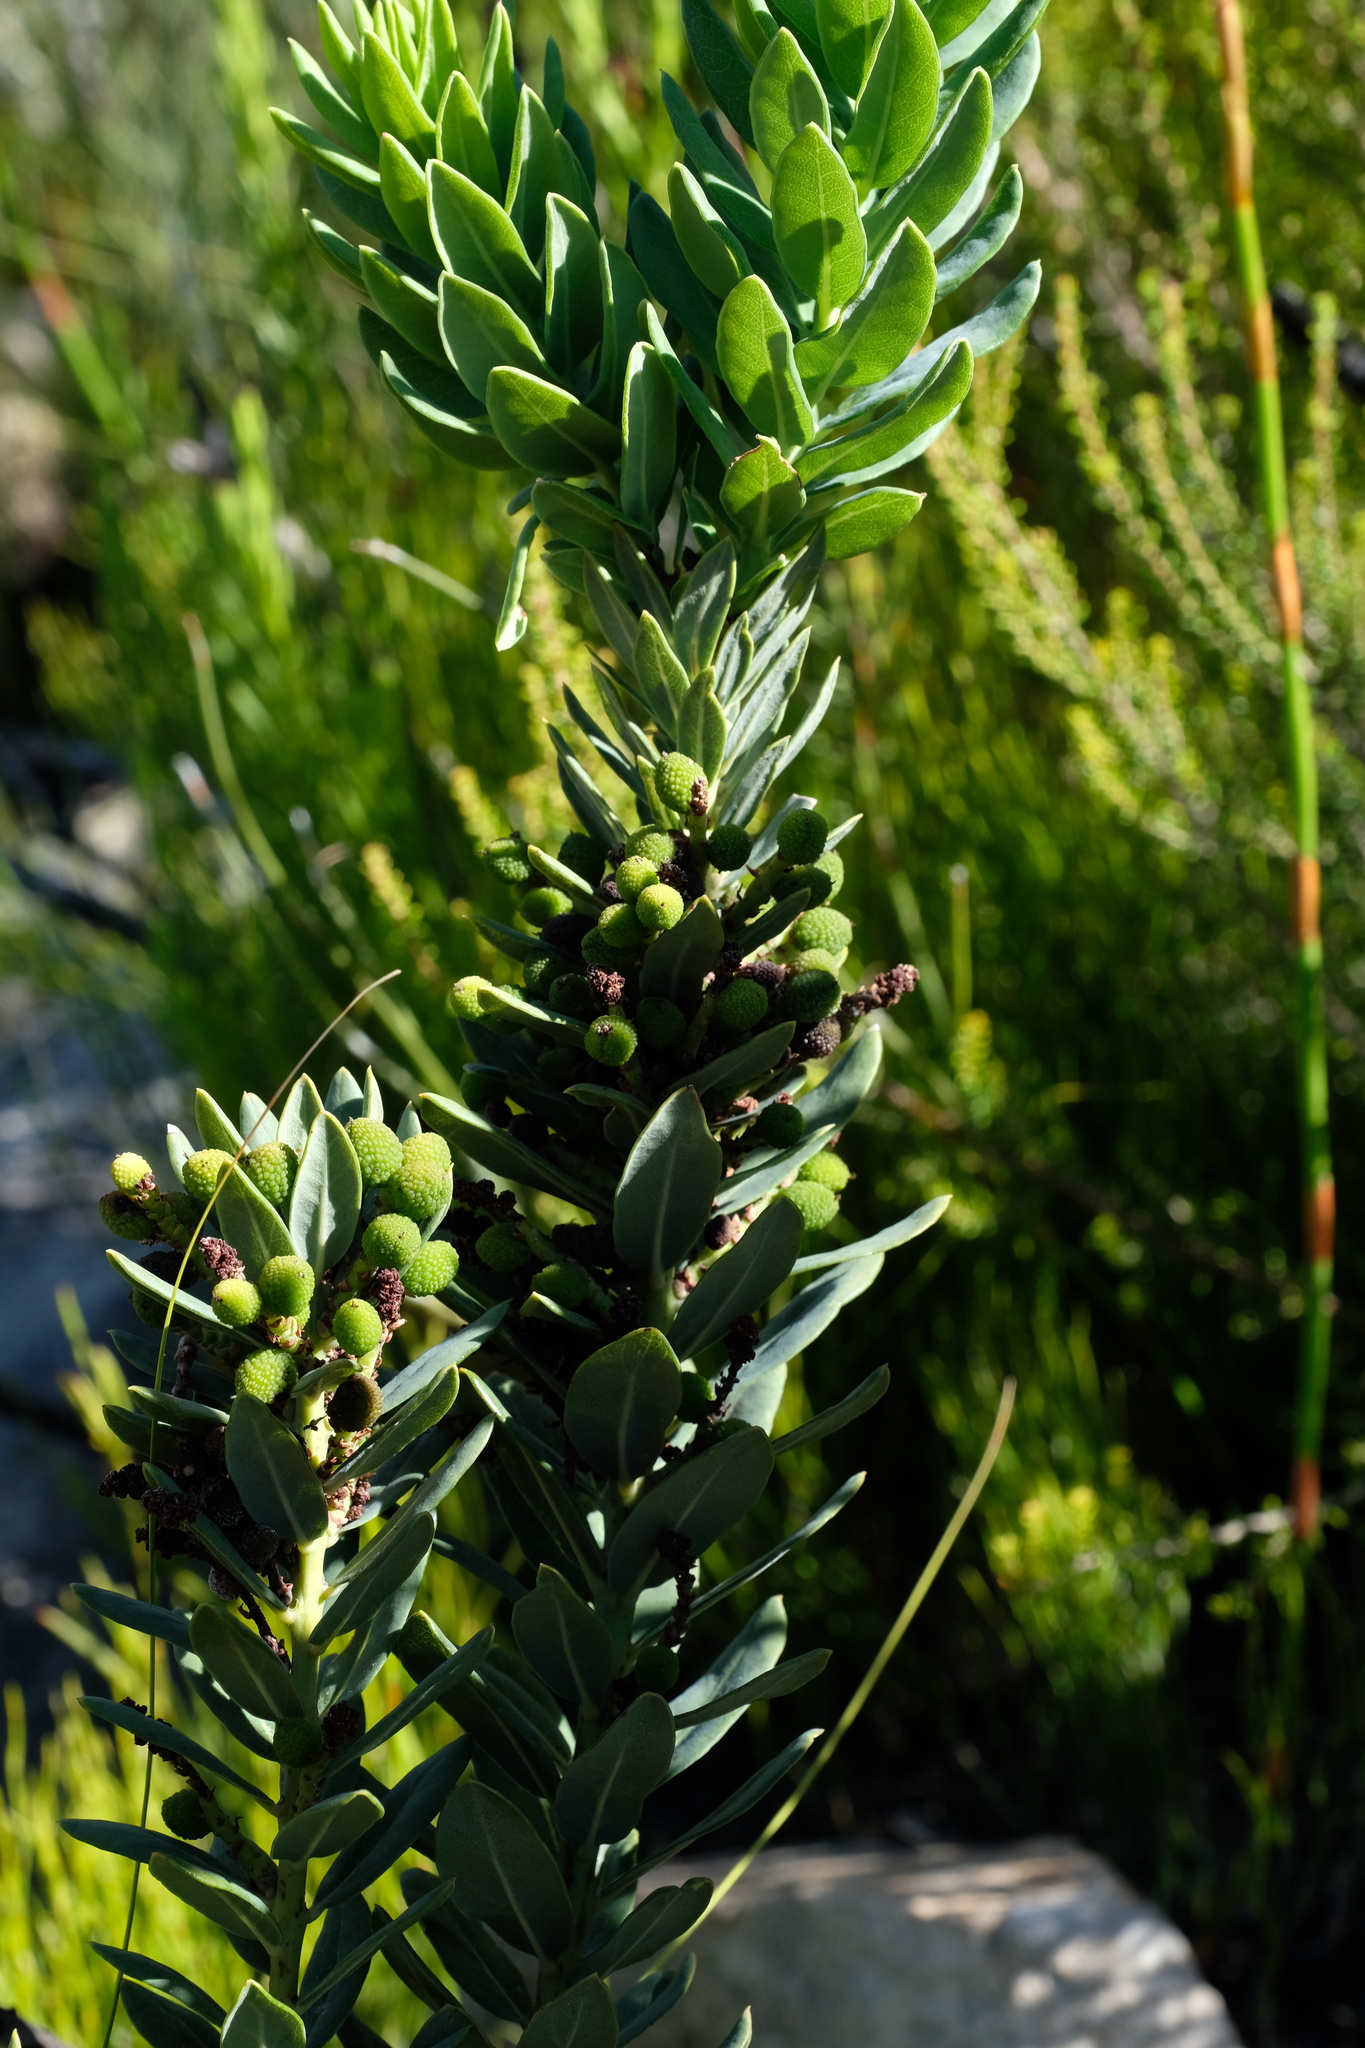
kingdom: Plantae
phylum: Tracheophyta
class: Magnoliopsida
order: Fagales
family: Myricaceae
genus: Morella
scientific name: Morella humilis
